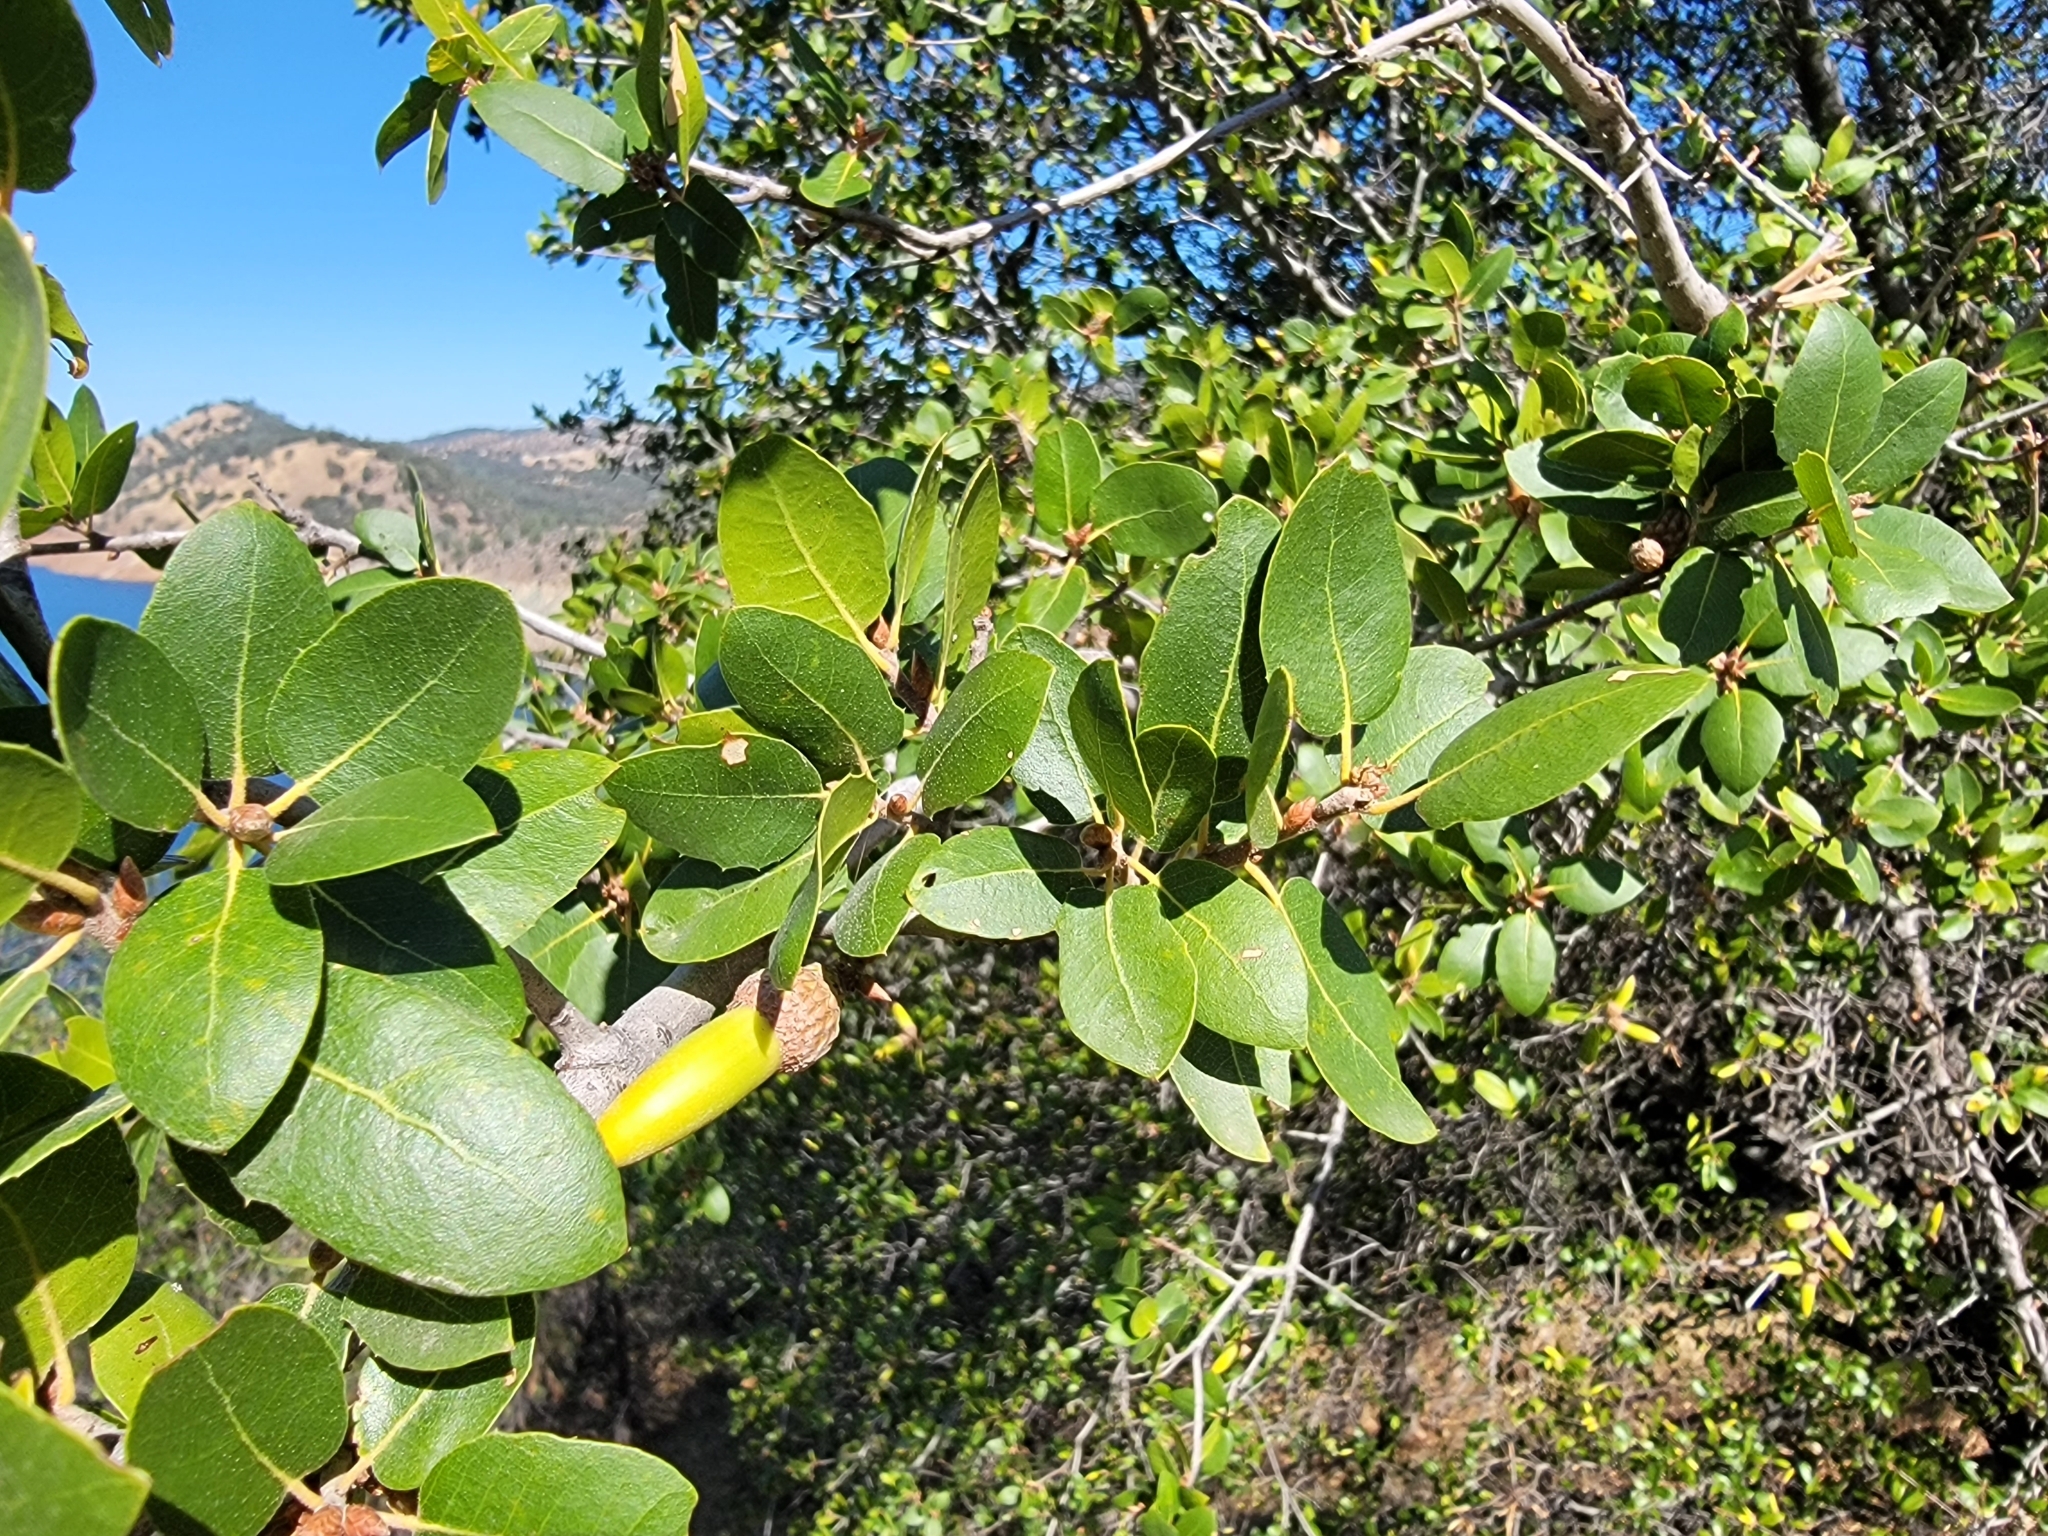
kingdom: Plantae
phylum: Tracheophyta
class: Magnoliopsida
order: Fagales
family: Fagaceae
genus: Quercus
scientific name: Quercus wislizeni
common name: Interior live oak
